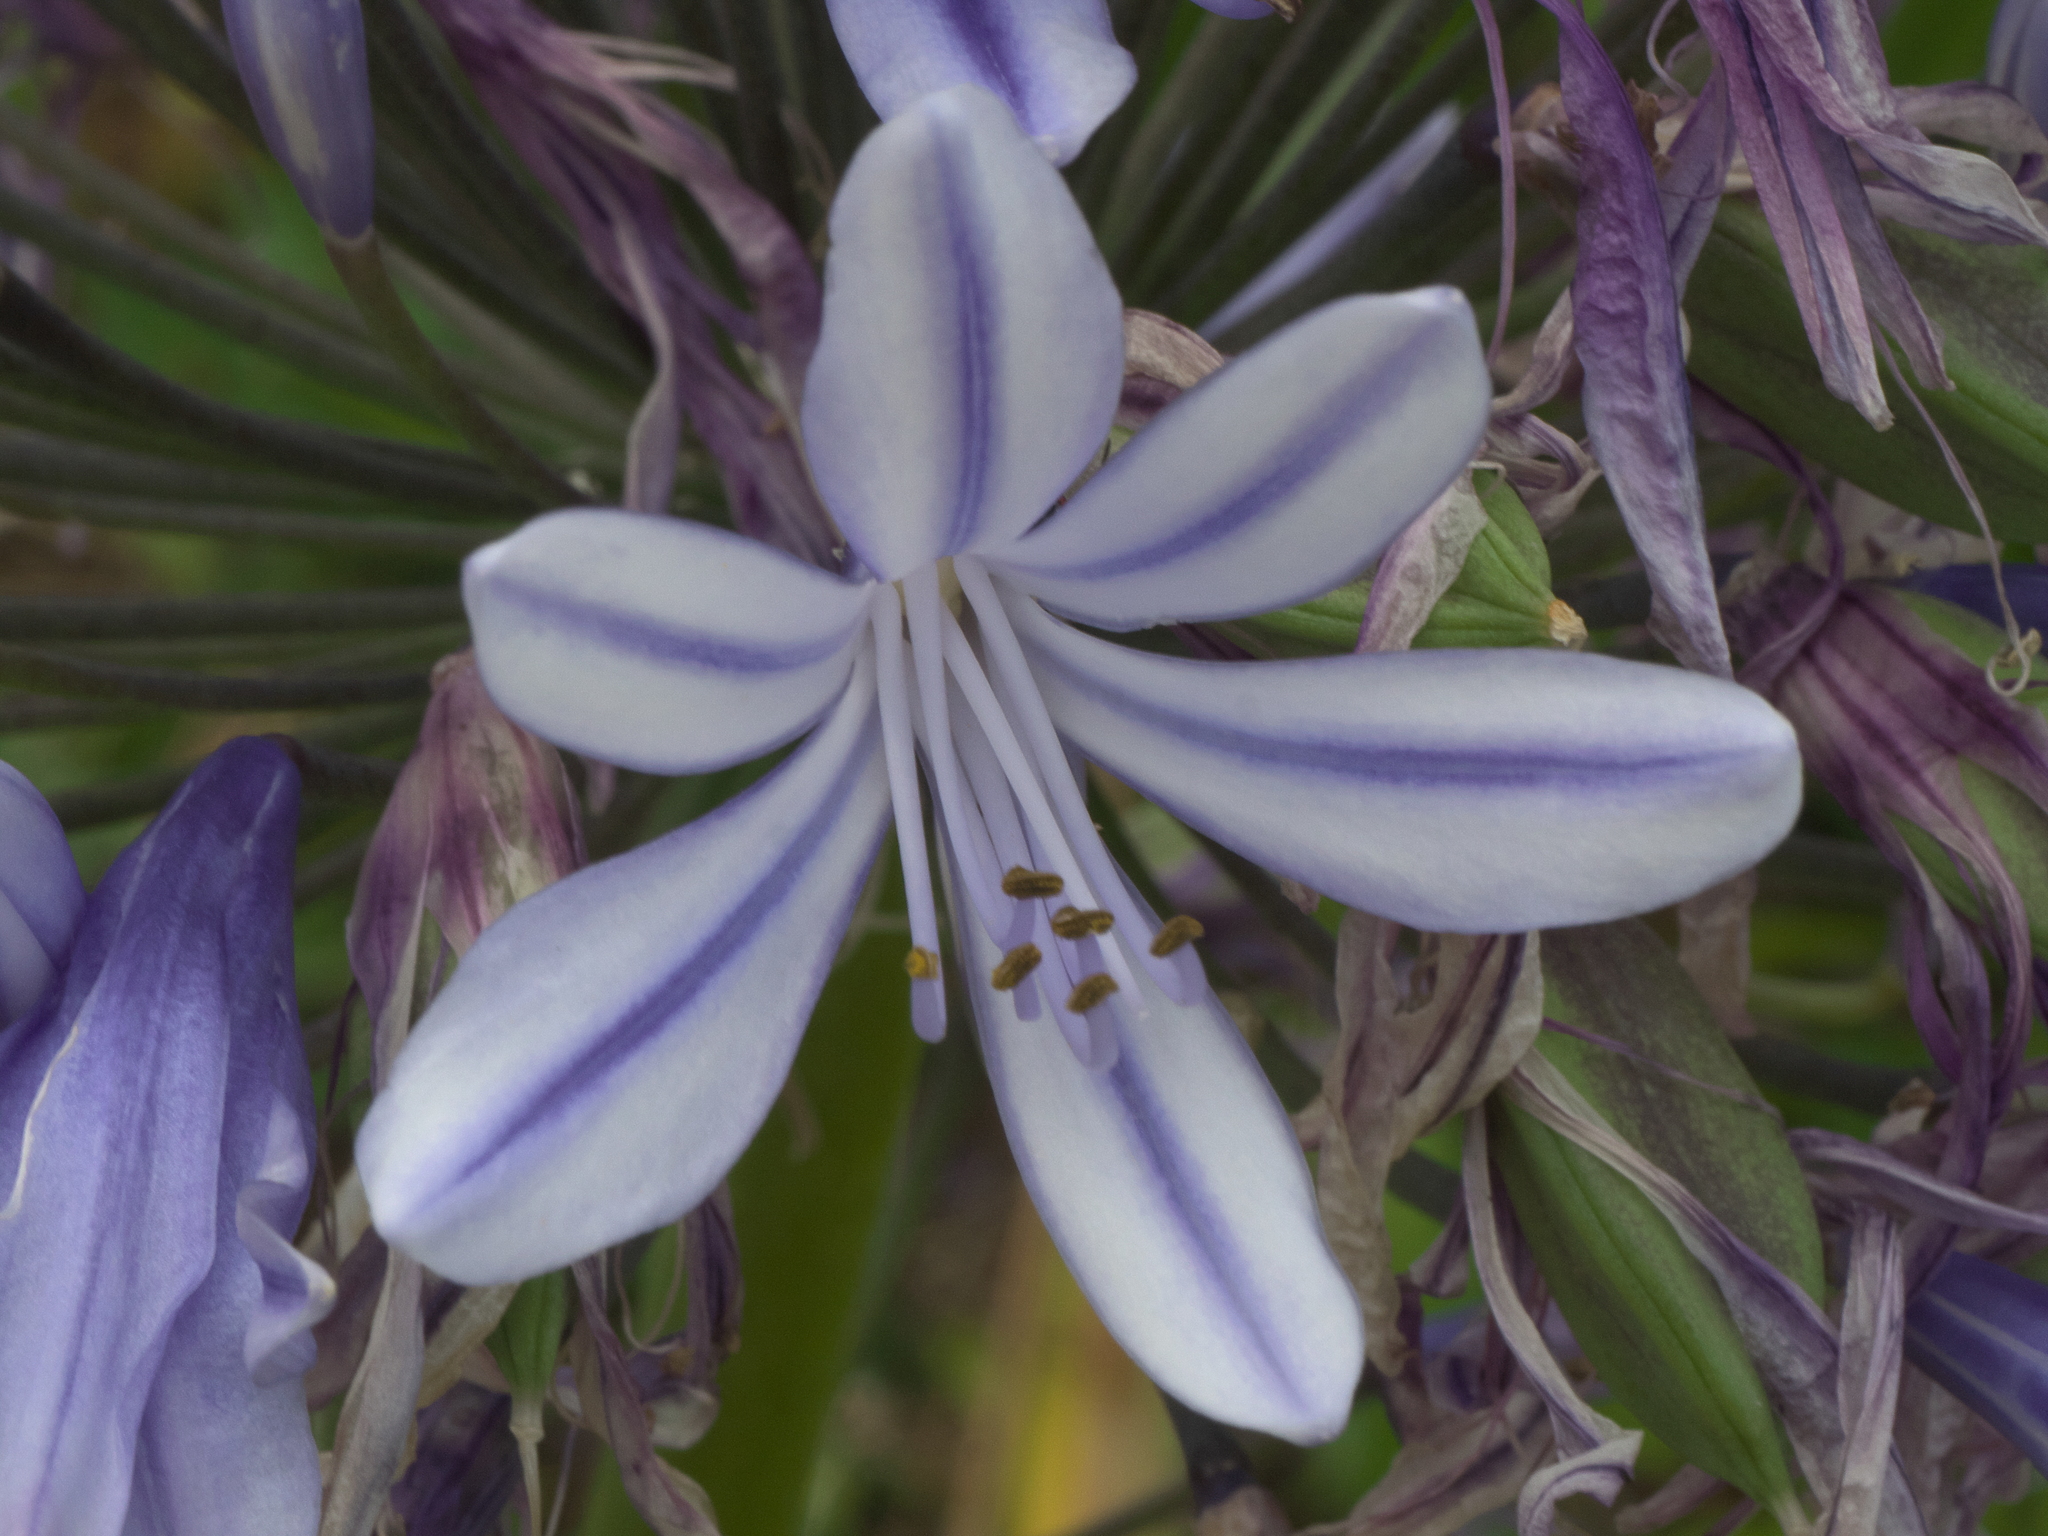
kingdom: Plantae
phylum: Tracheophyta
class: Liliopsida
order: Asparagales
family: Amaryllidaceae
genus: Agapanthus
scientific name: Agapanthus praecox
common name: African-lily
